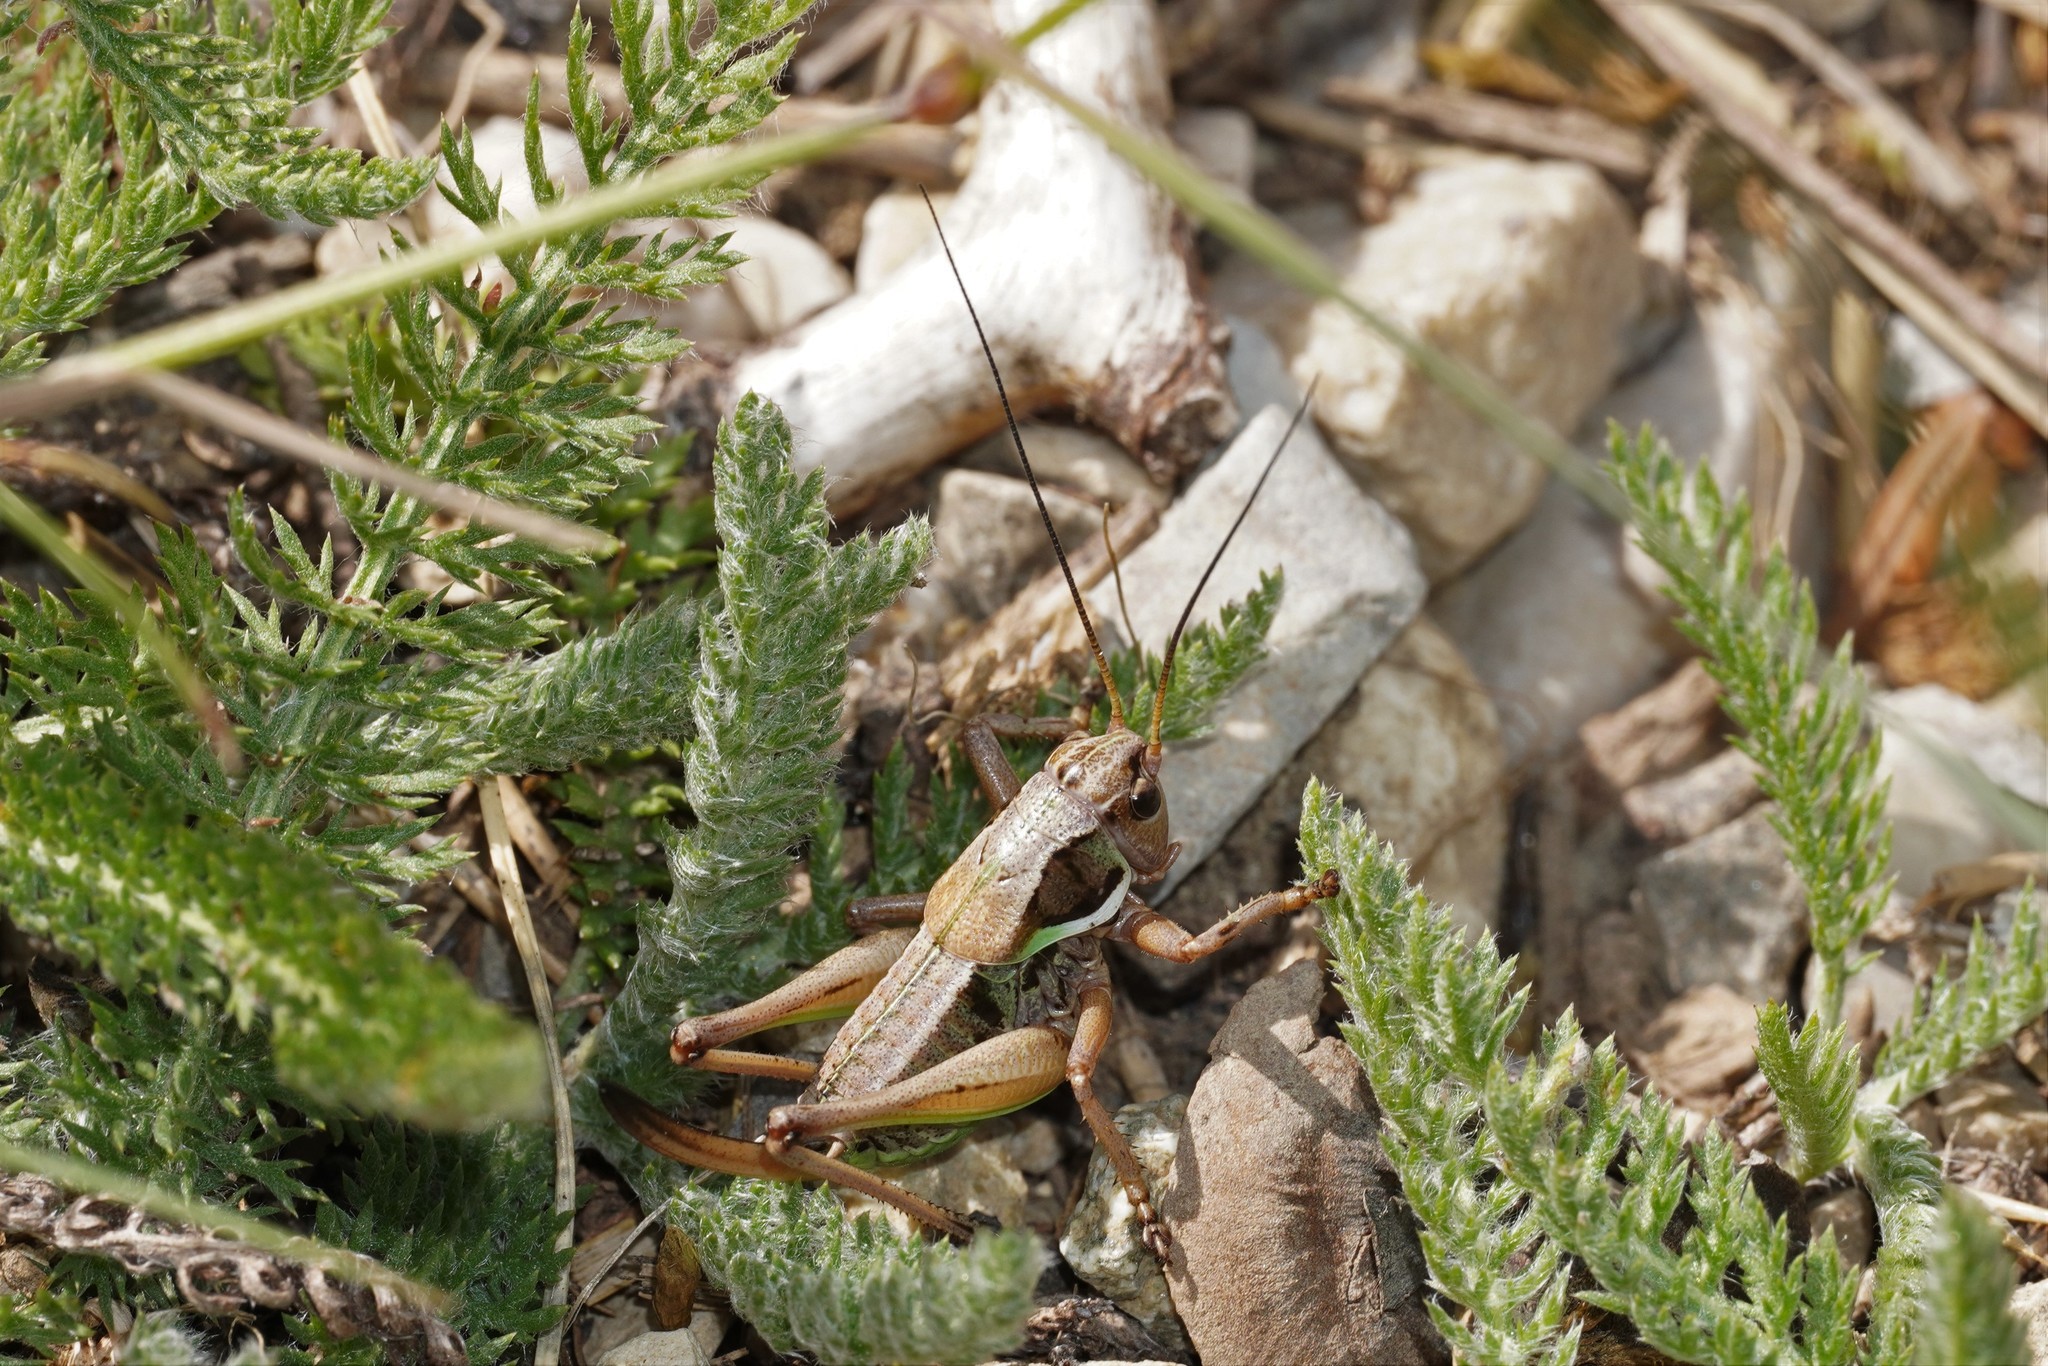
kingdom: Animalia
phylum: Arthropoda
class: Insecta
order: Orthoptera
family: Tettigoniidae
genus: Anonconotus
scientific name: Anonconotus ghilianii
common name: Ghiliani's alpine bush-cricket
